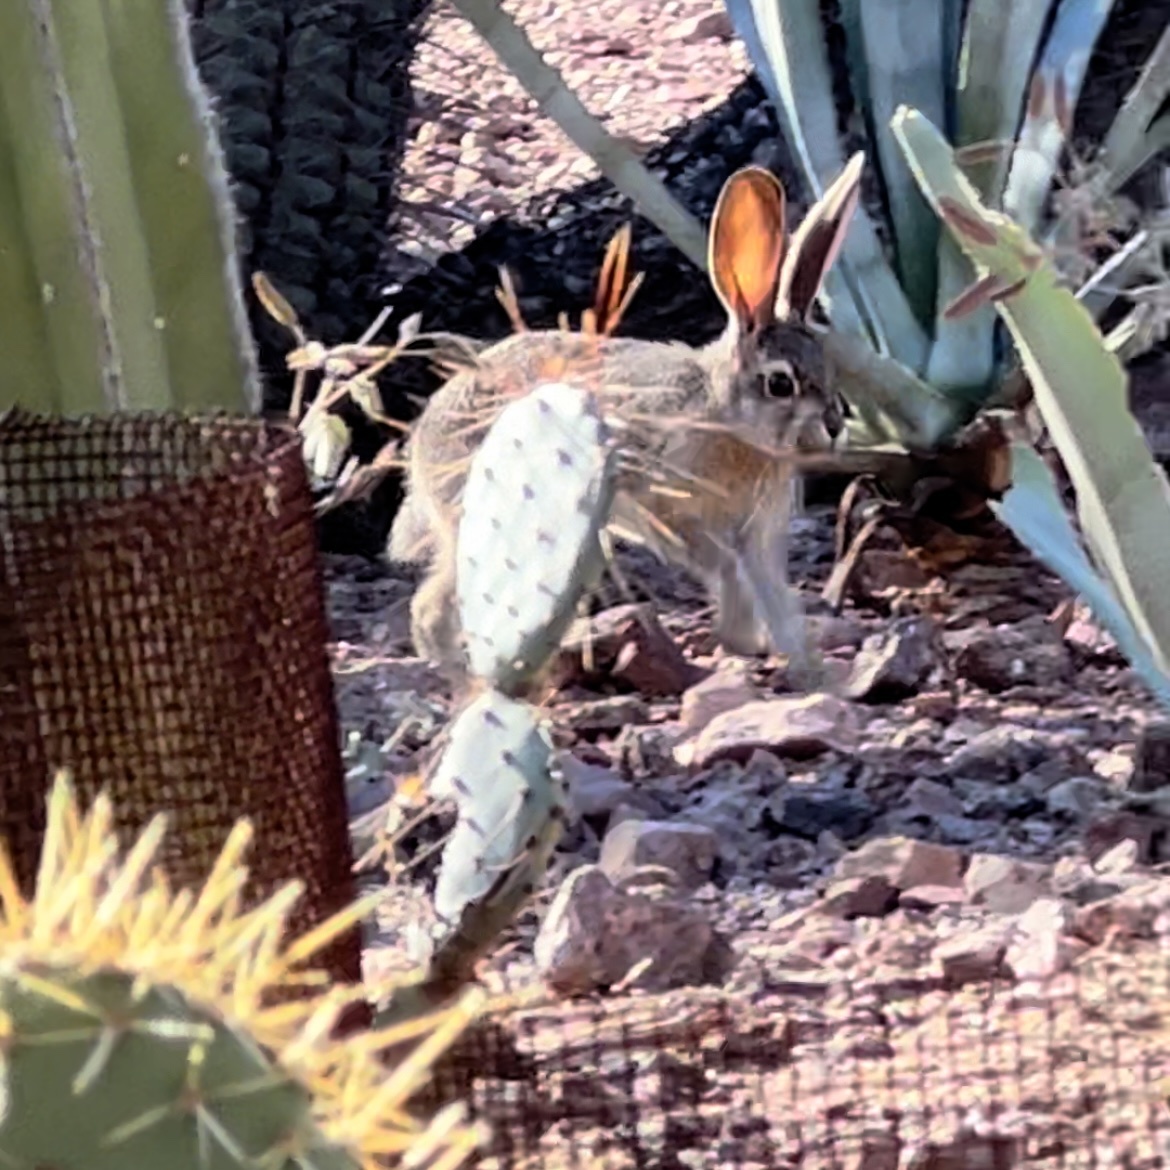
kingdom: Animalia
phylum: Chordata
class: Mammalia
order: Lagomorpha
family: Leporidae
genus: Sylvilagus
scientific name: Sylvilagus audubonii
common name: Desert cottontail
